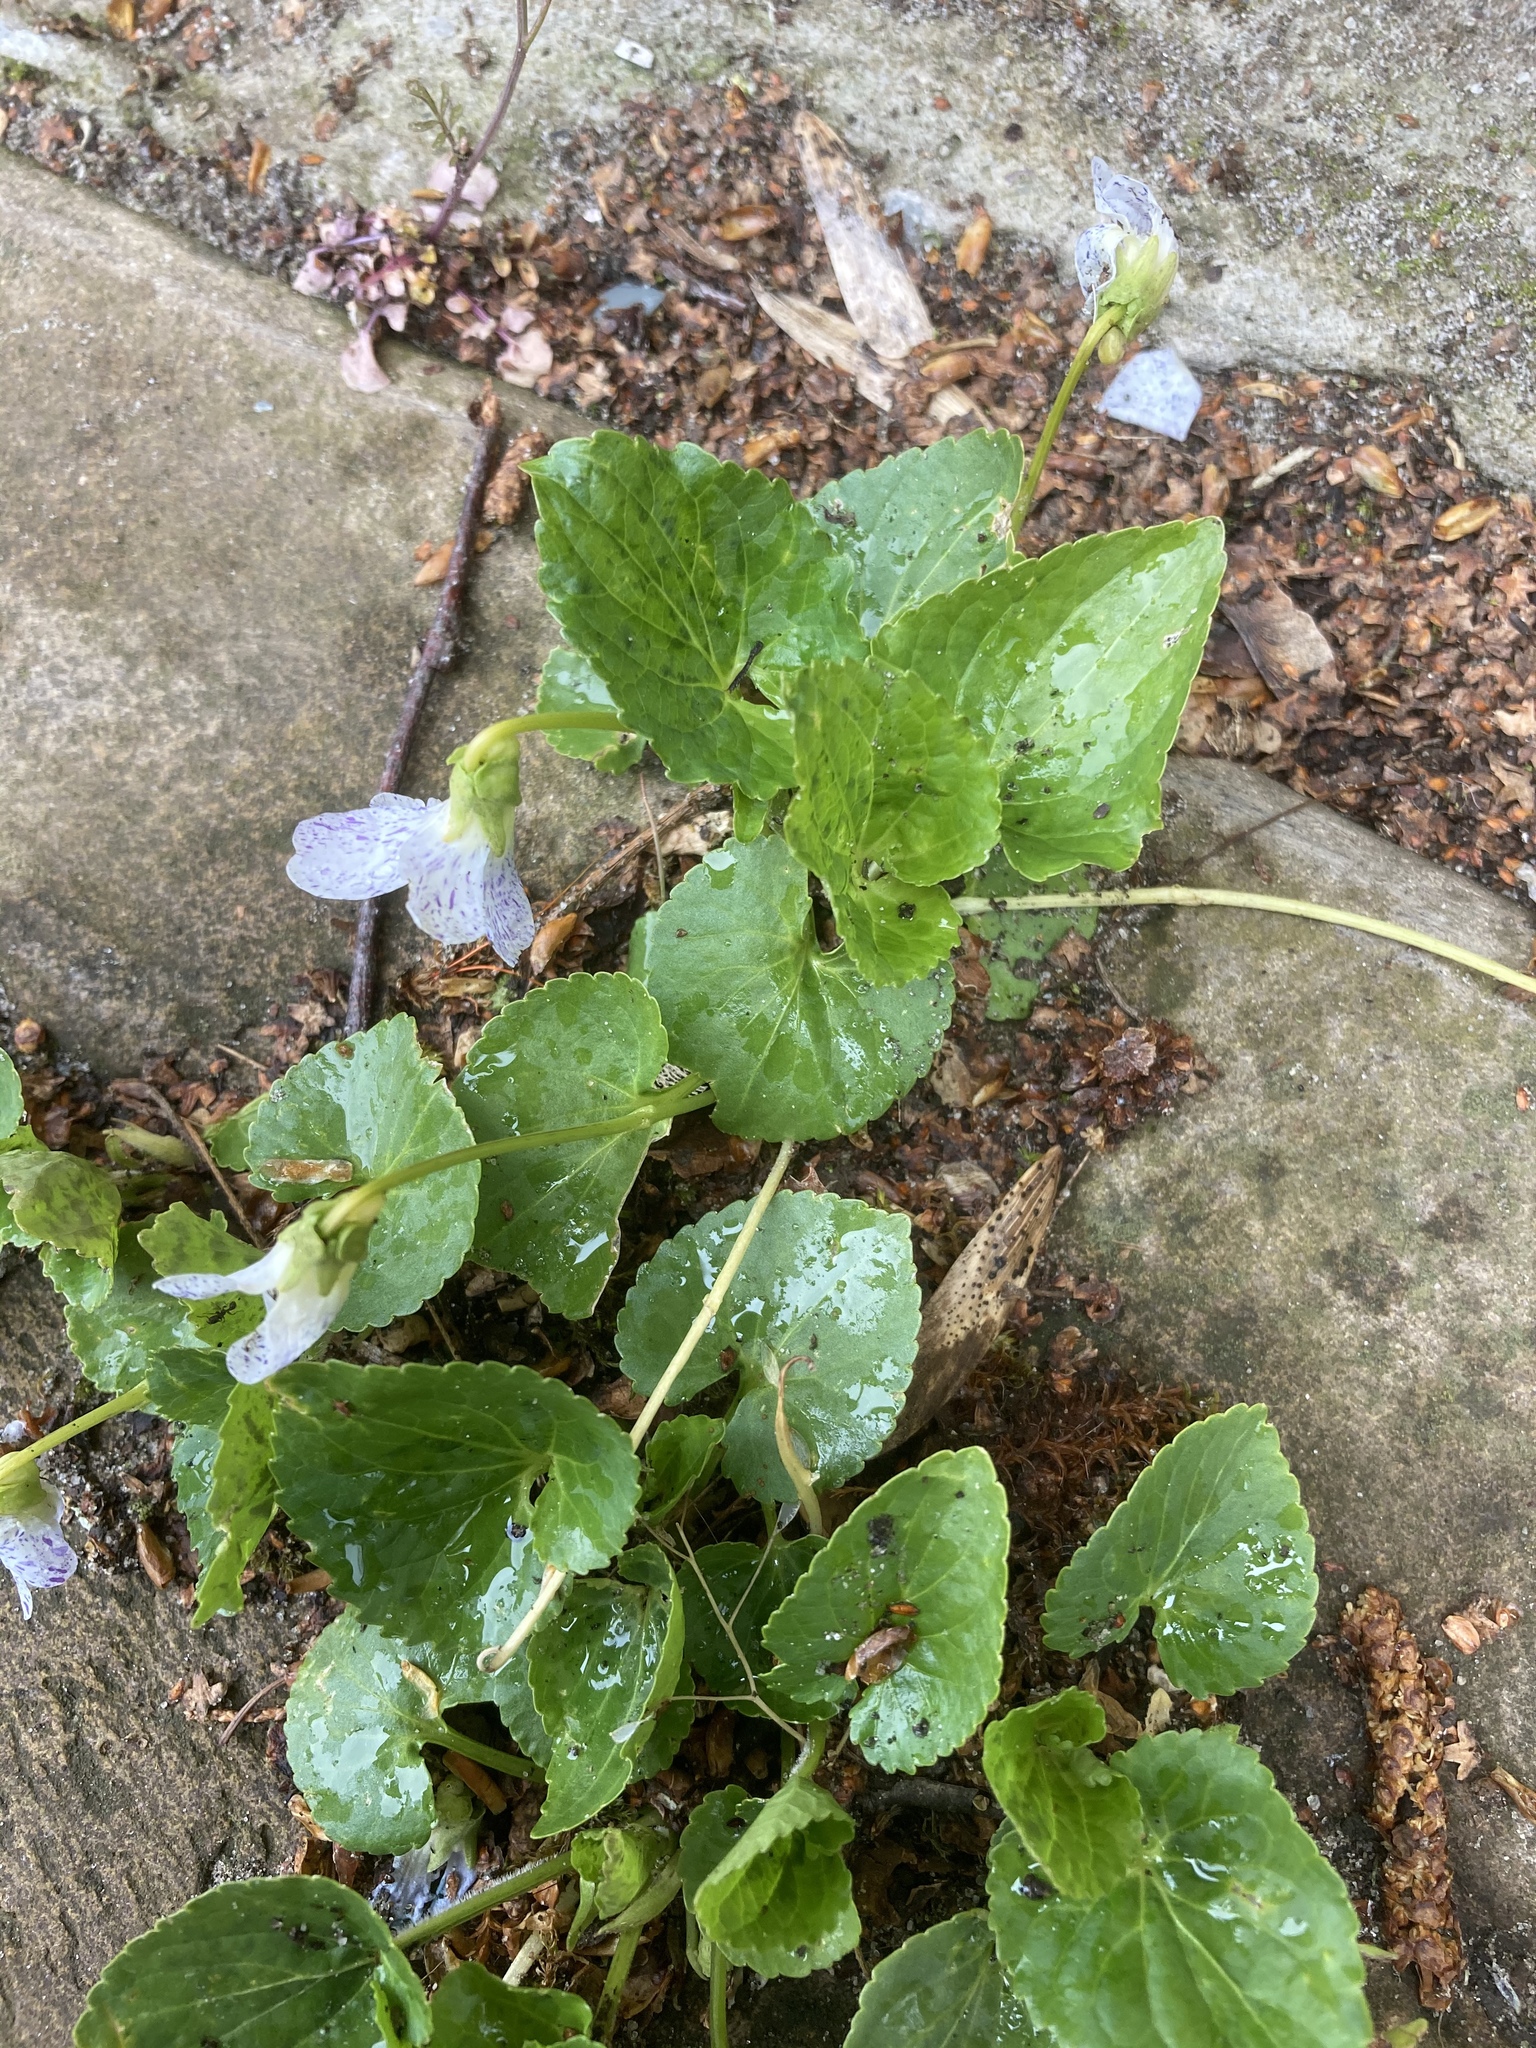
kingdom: Plantae
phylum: Tracheophyta
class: Magnoliopsida
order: Malpighiales
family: Violaceae
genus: Viola
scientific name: Viola sororia
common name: Dooryard violet
